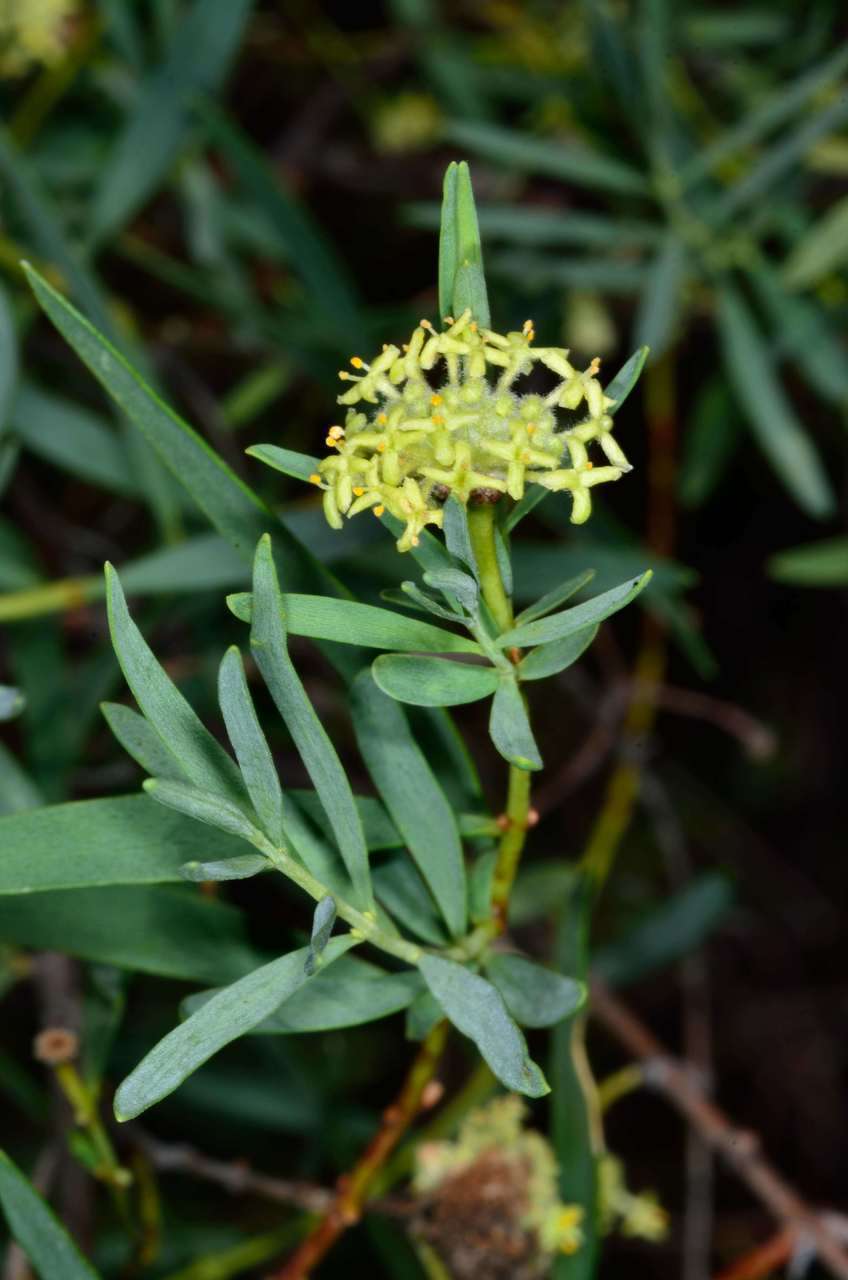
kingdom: Plantae
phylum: Tracheophyta
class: Magnoliopsida
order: Malvales
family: Thymelaeaceae
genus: Pimelea
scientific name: Pimelea microcephala
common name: Mallee riceflower
